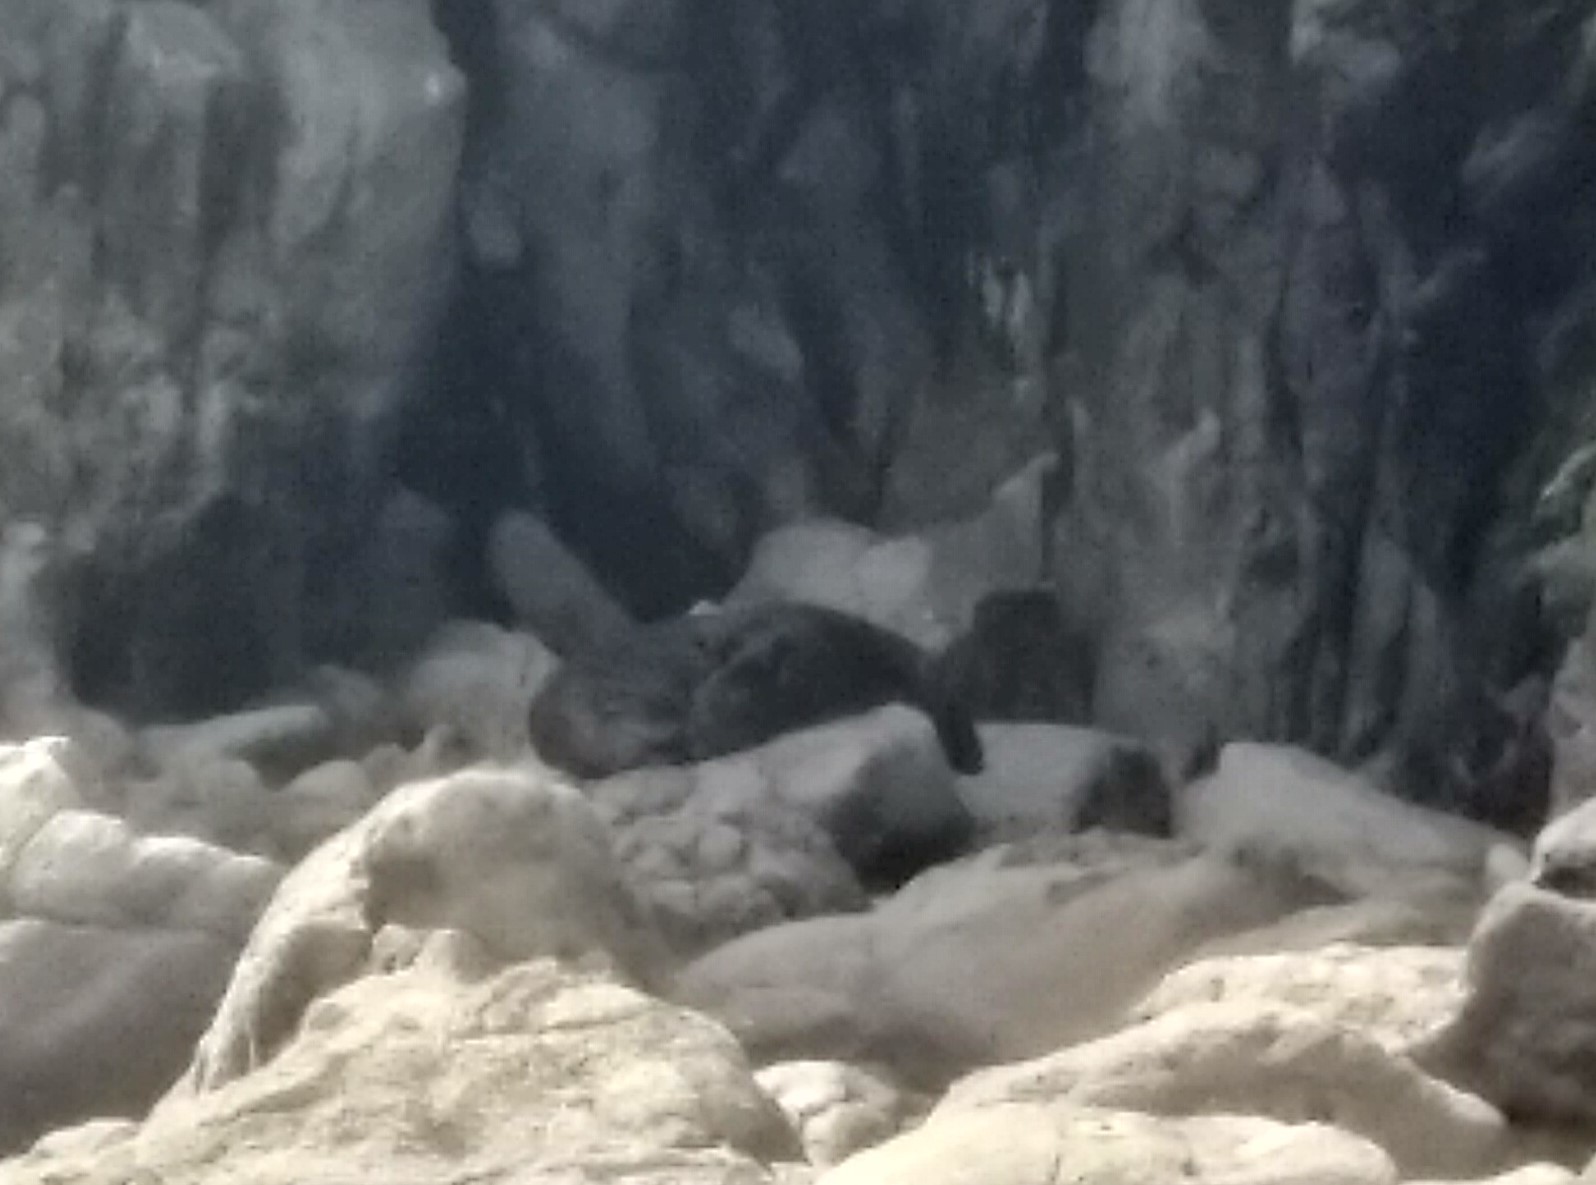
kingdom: Animalia
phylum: Chordata
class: Mammalia
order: Carnivora
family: Otariidae
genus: Arctocephalus
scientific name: Arctocephalus forsteri
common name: New zealand fur seal
